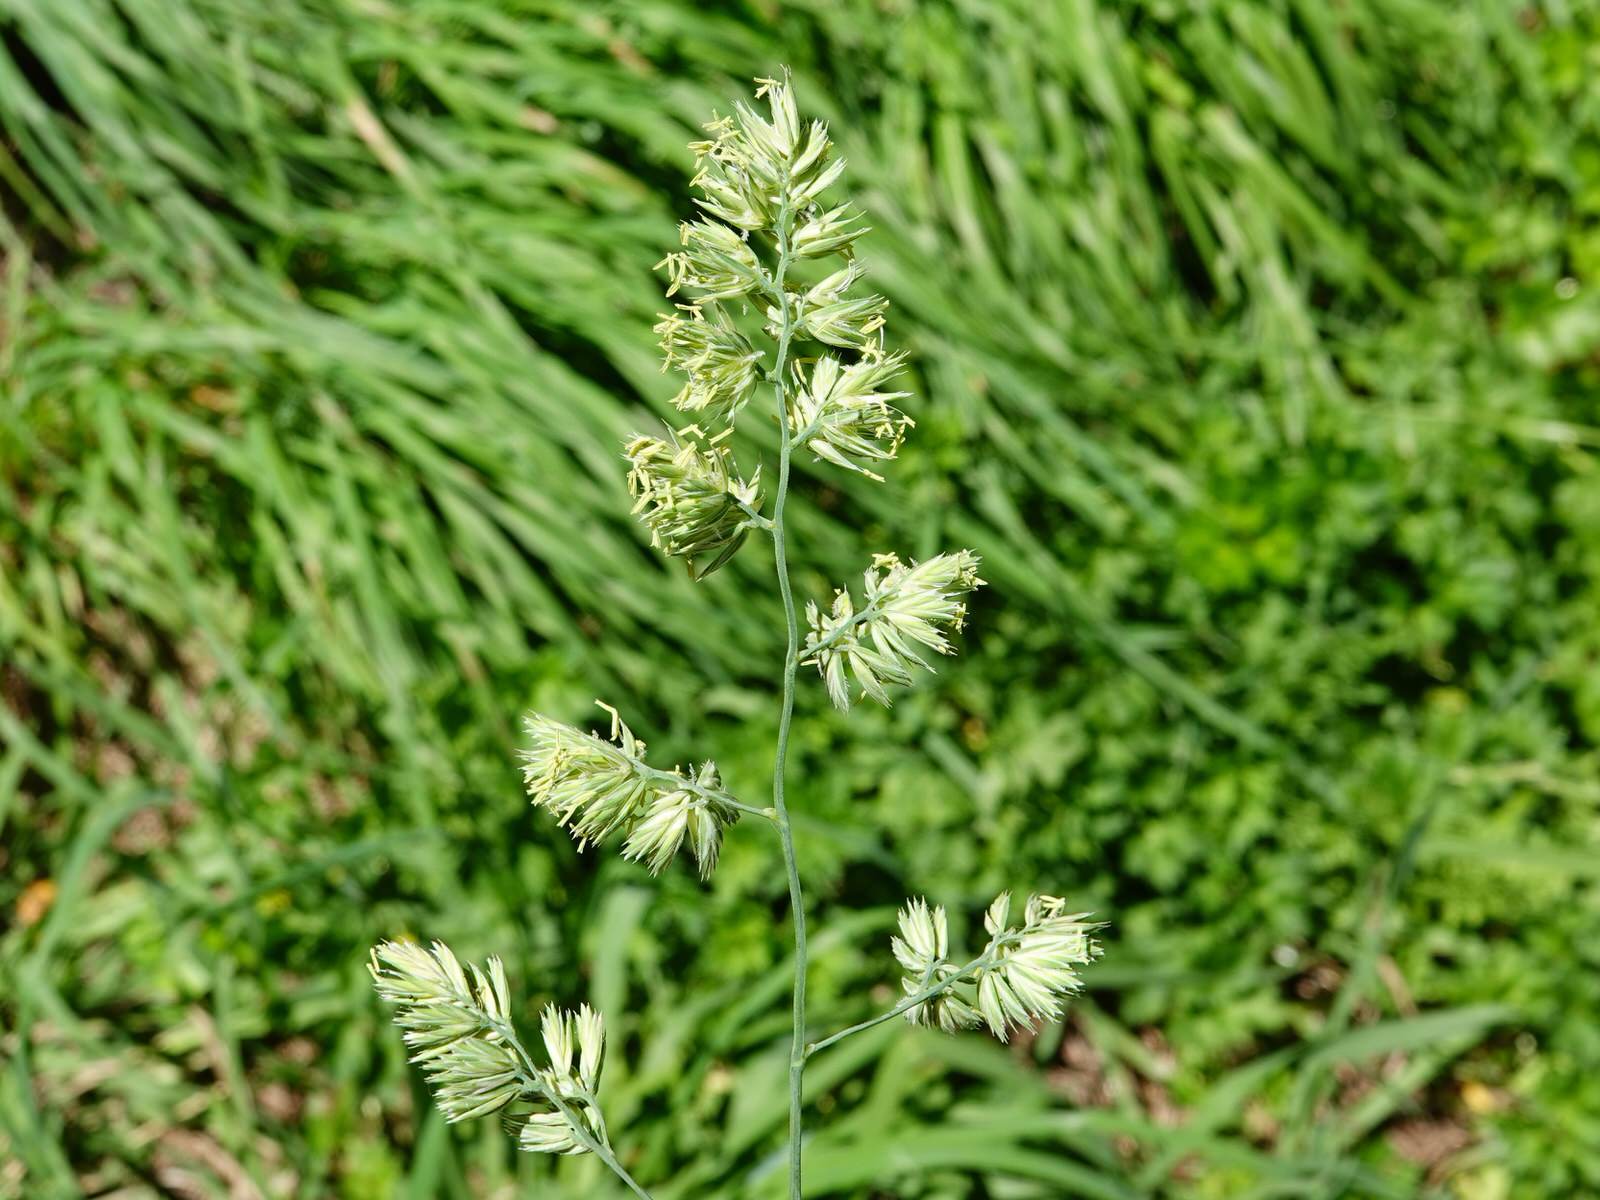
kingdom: Plantae
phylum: Tracheophyta
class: Liliopsida
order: Poales
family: Poaceae
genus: Dactylis
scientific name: Dactylis glomerata
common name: Orchardgrass
